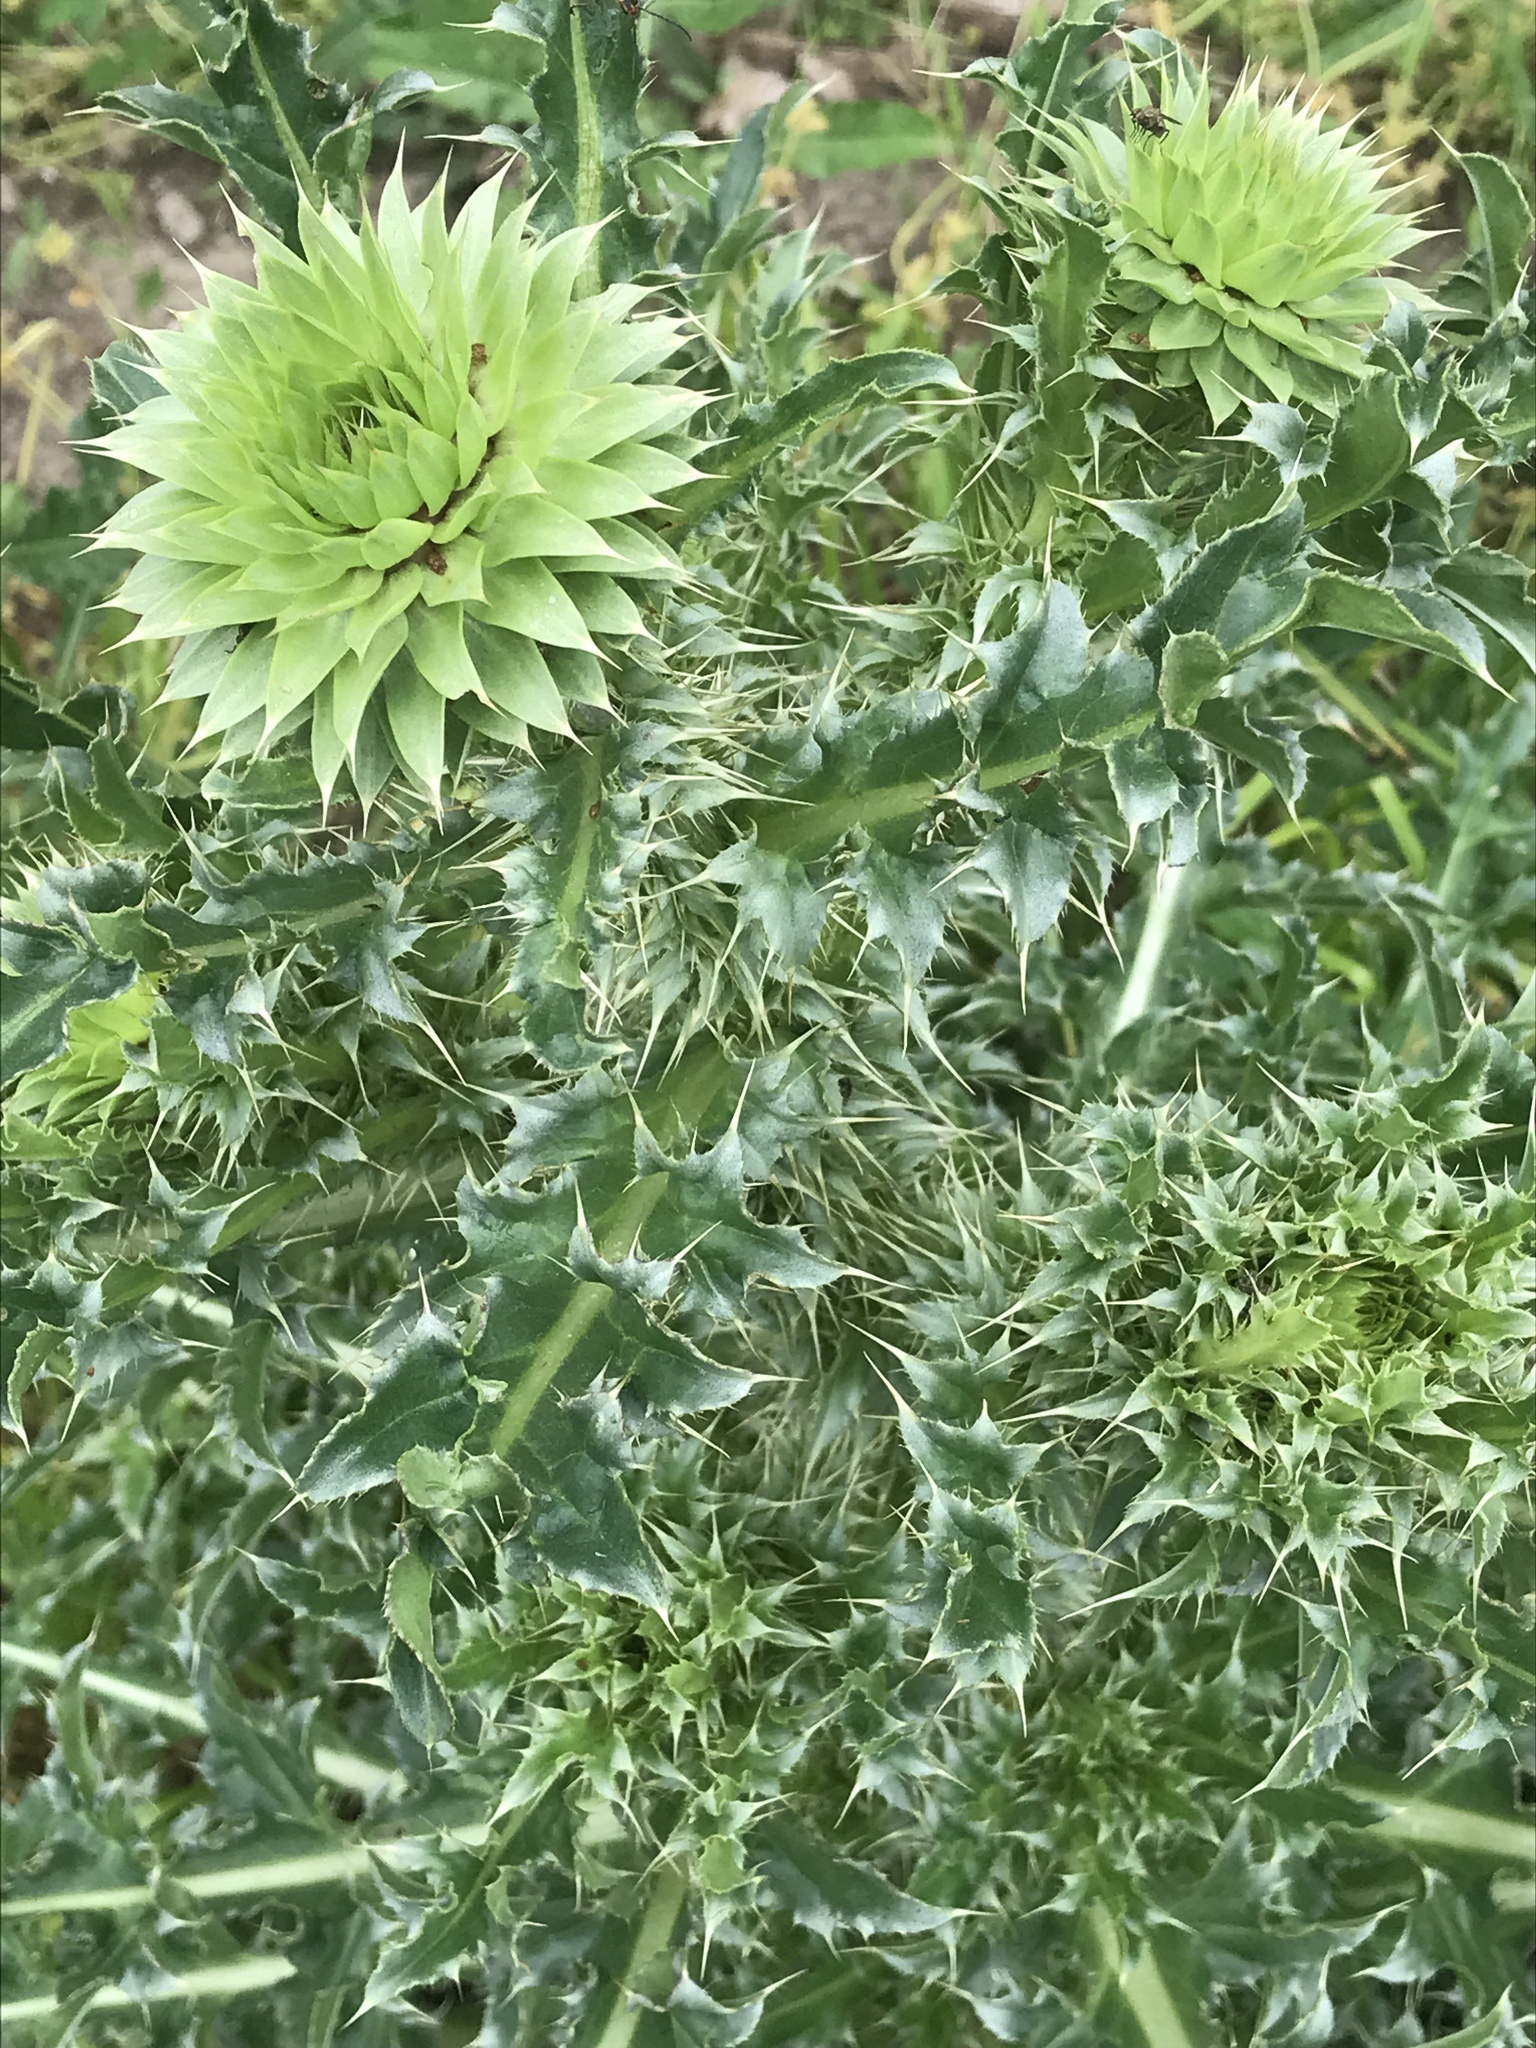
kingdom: Plantae
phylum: Tracheophyta
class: Magnoliopsida
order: Asterales
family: Asteraceae
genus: Carduus
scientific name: Carduus nutans
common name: Musk thistle
